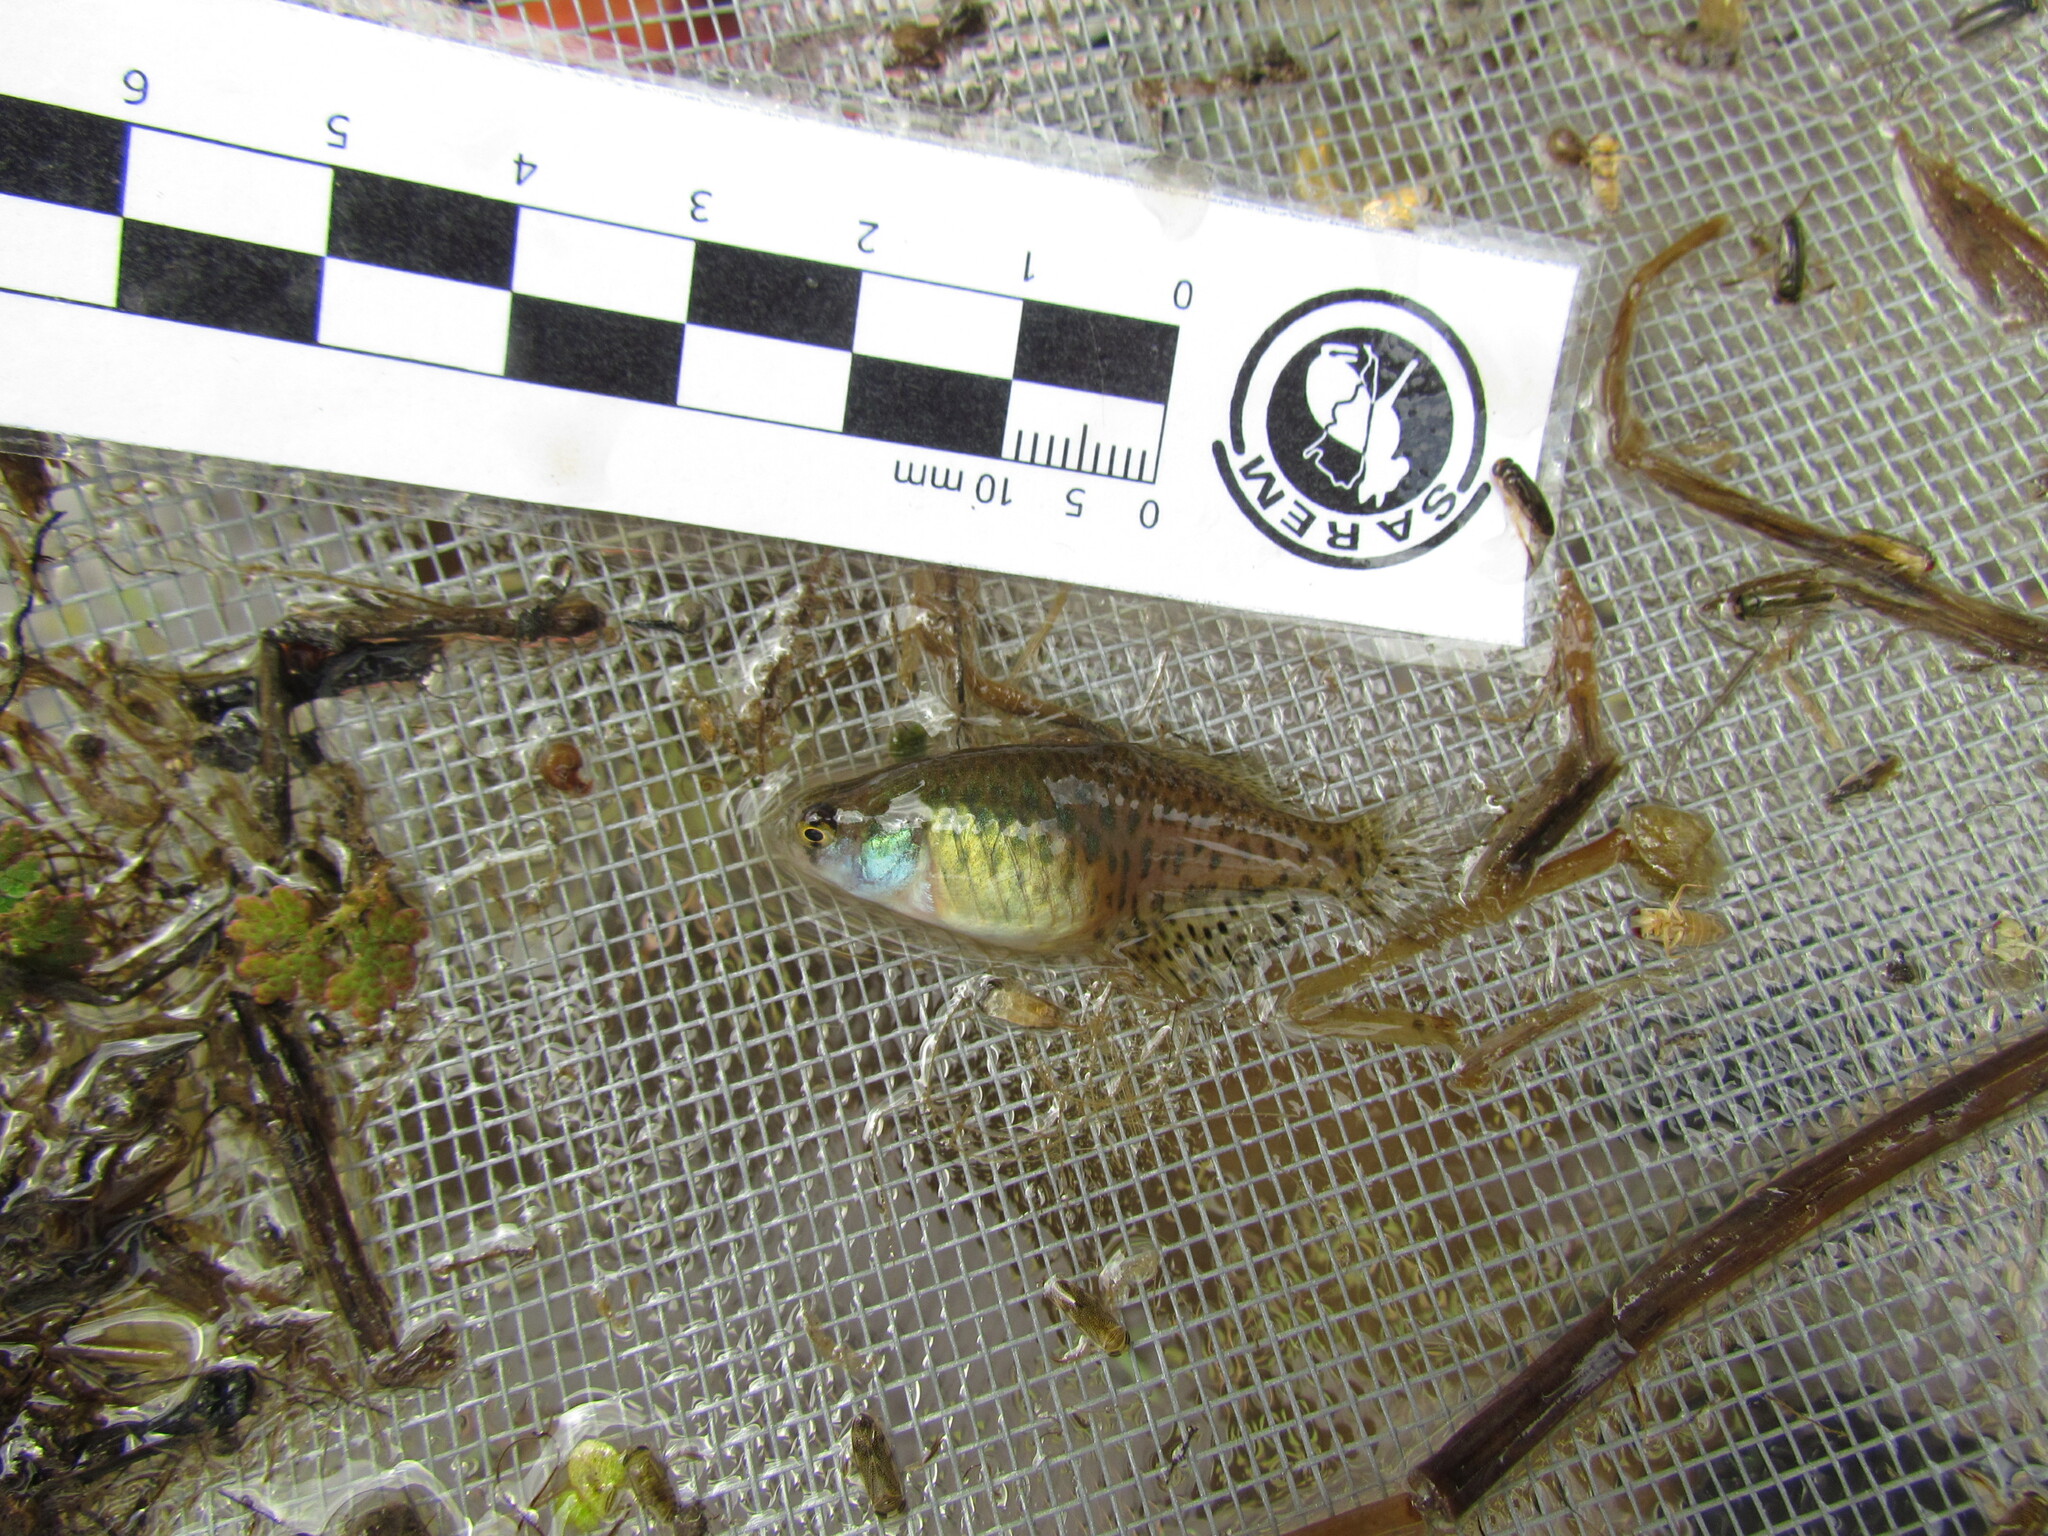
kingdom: Animalia
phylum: Chordata
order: Cyprinodontiformes
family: Rivulidae
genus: Austrolebias
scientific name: Austrolebias bellottii
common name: Argentine pearlfish
